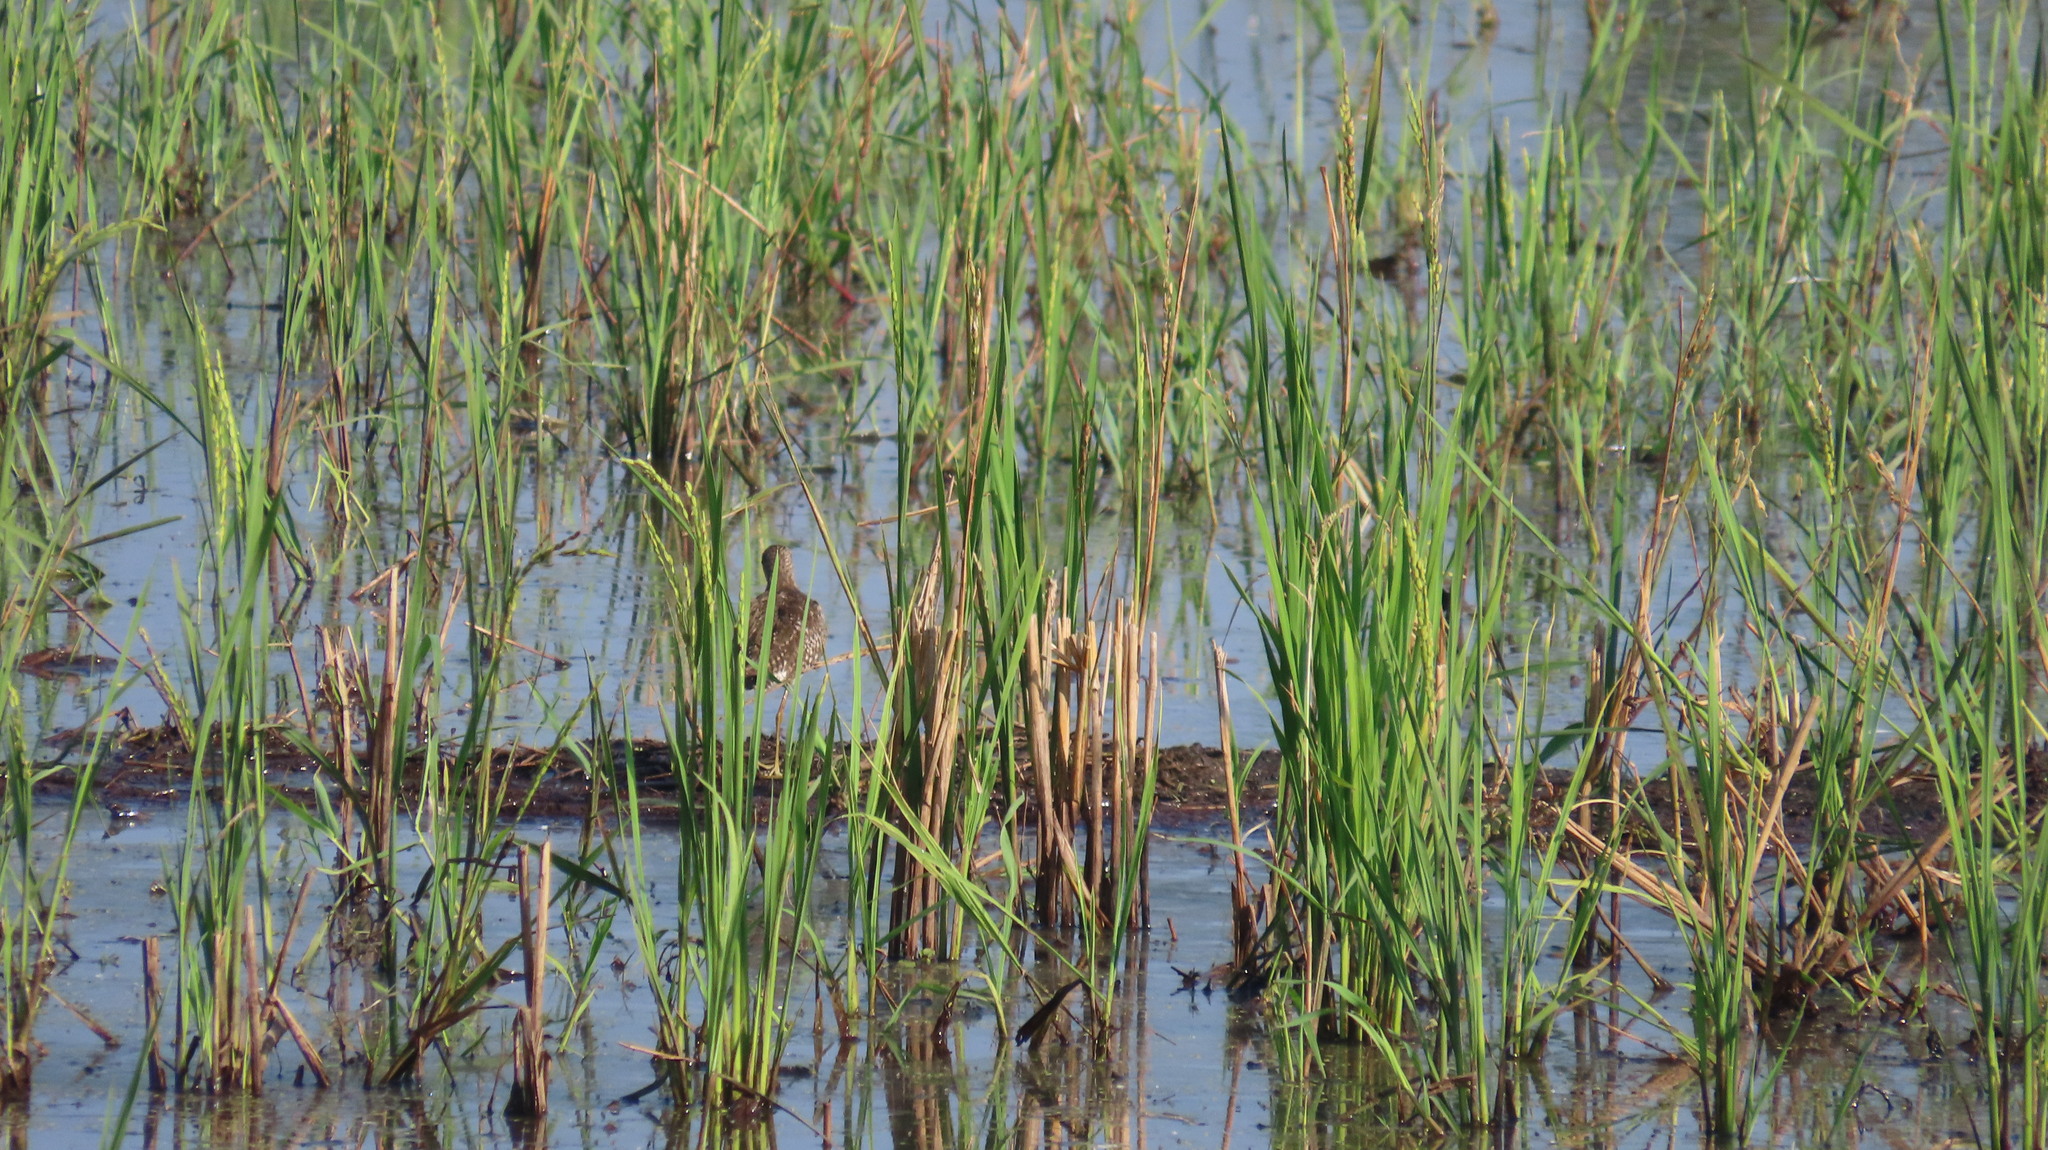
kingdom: Animalia
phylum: Chordata
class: Aves
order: Charadriiformes
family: Scolopacidae
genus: Tringa
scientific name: Tringa glareola
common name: Wood sandpiper
